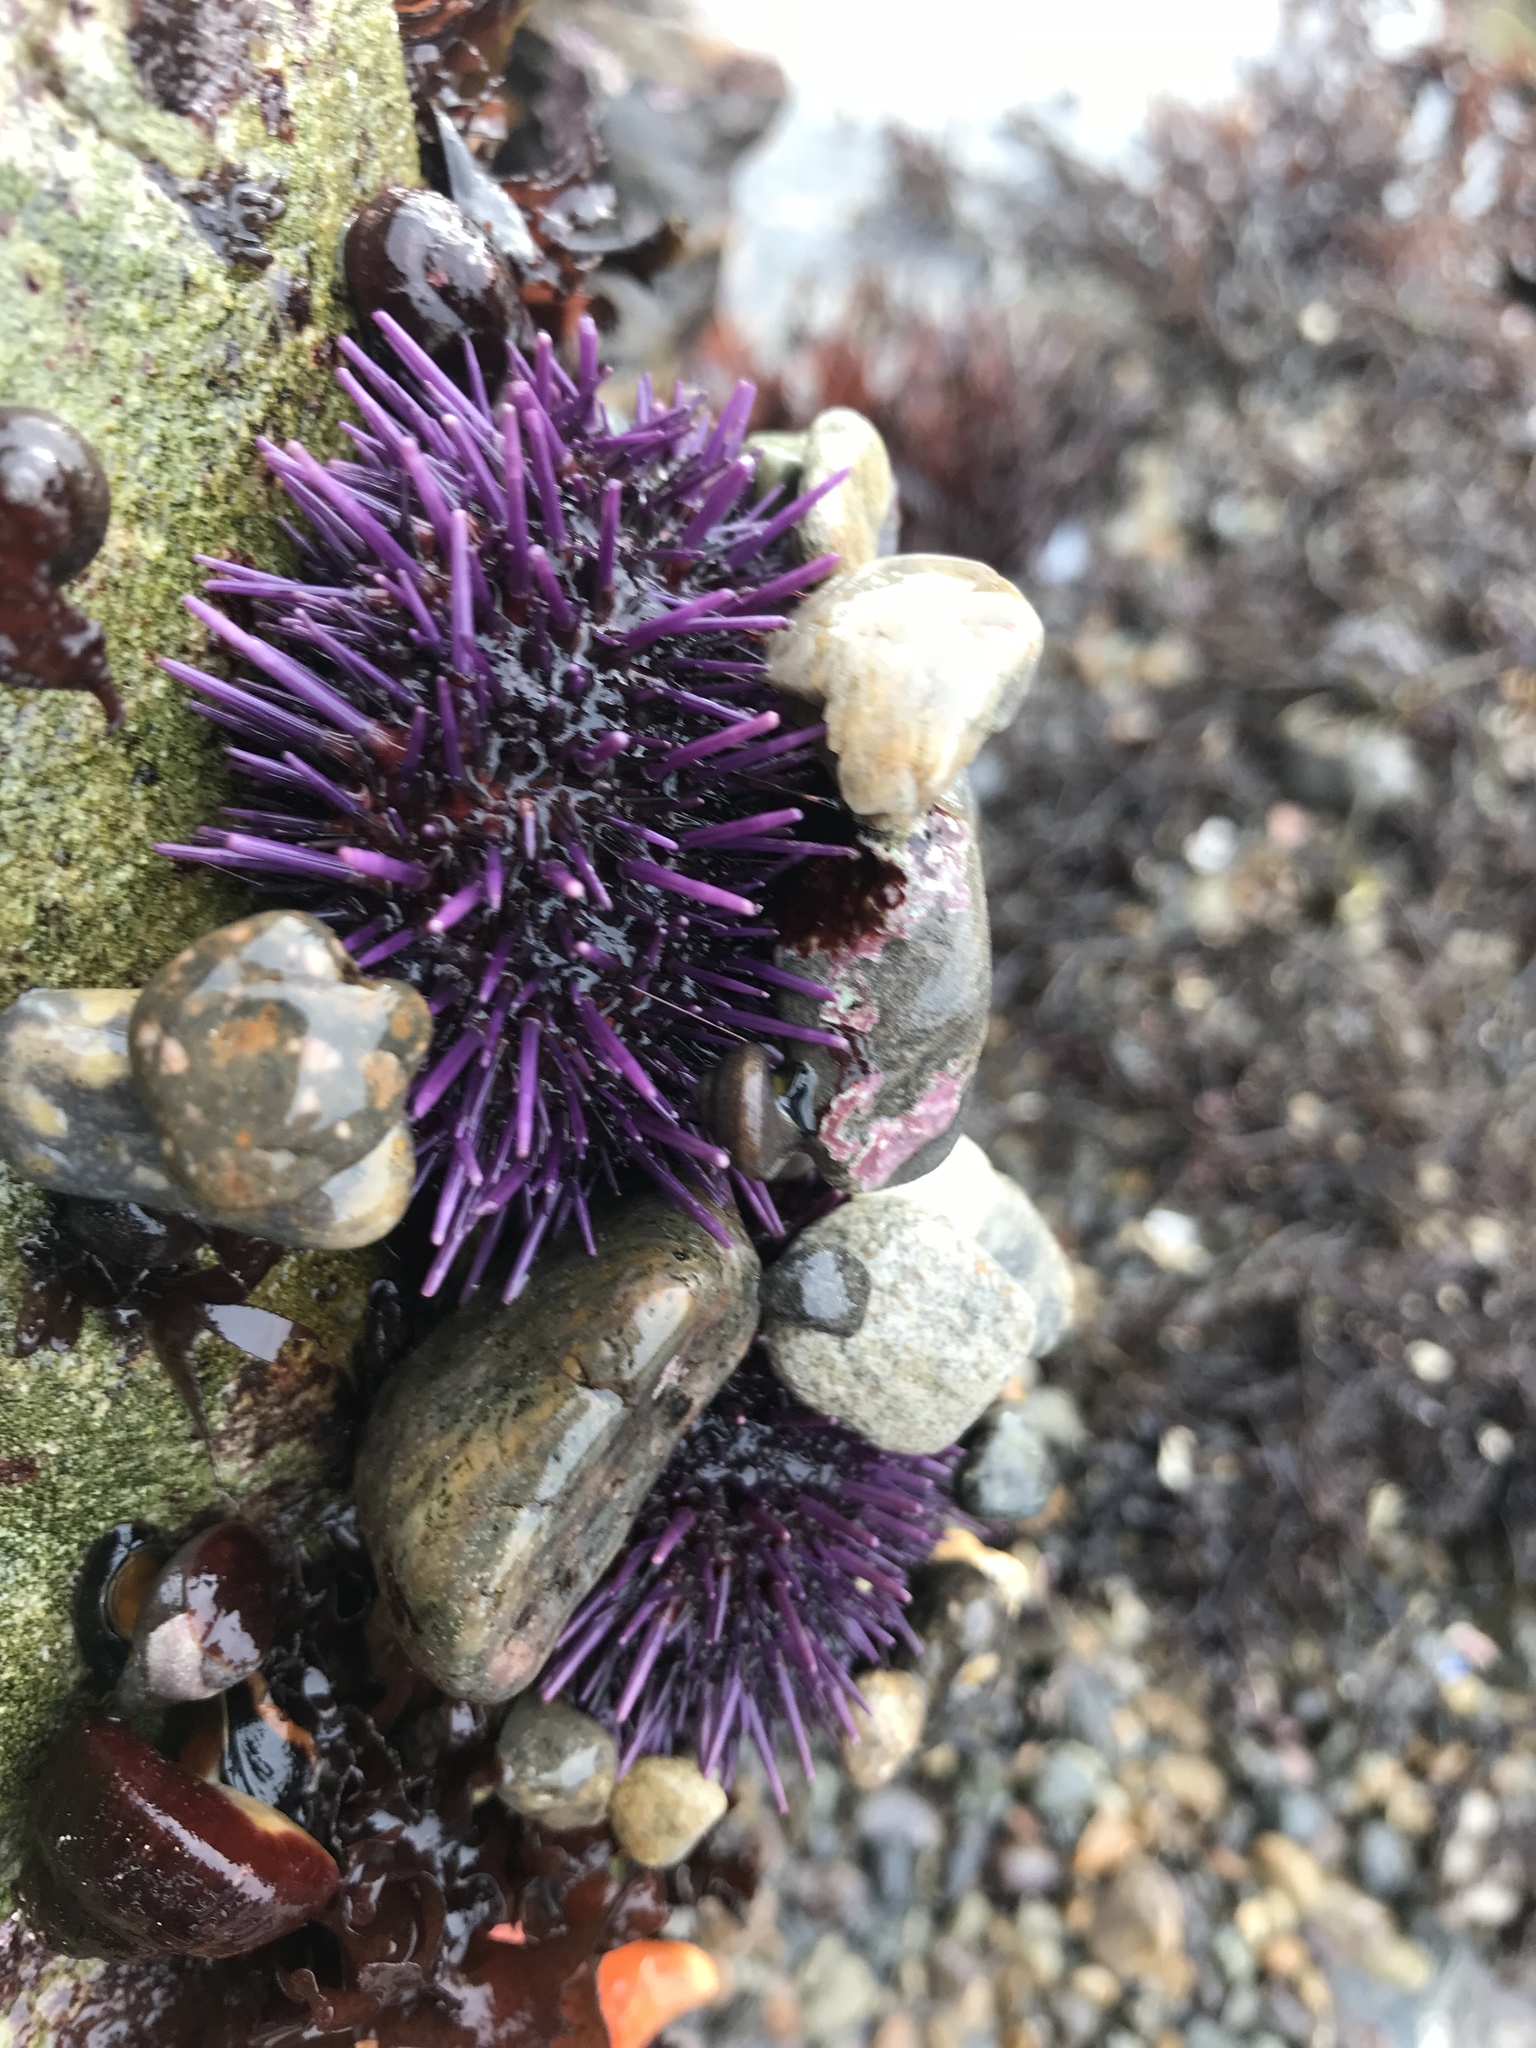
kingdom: Animalia
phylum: Echinodermata
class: Echinoidea
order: Camarodonta
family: Strongylocentrotidae
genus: Strongylocentrotus
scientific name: Strongylocentrotus purpuratus
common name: Purple sea urchin
